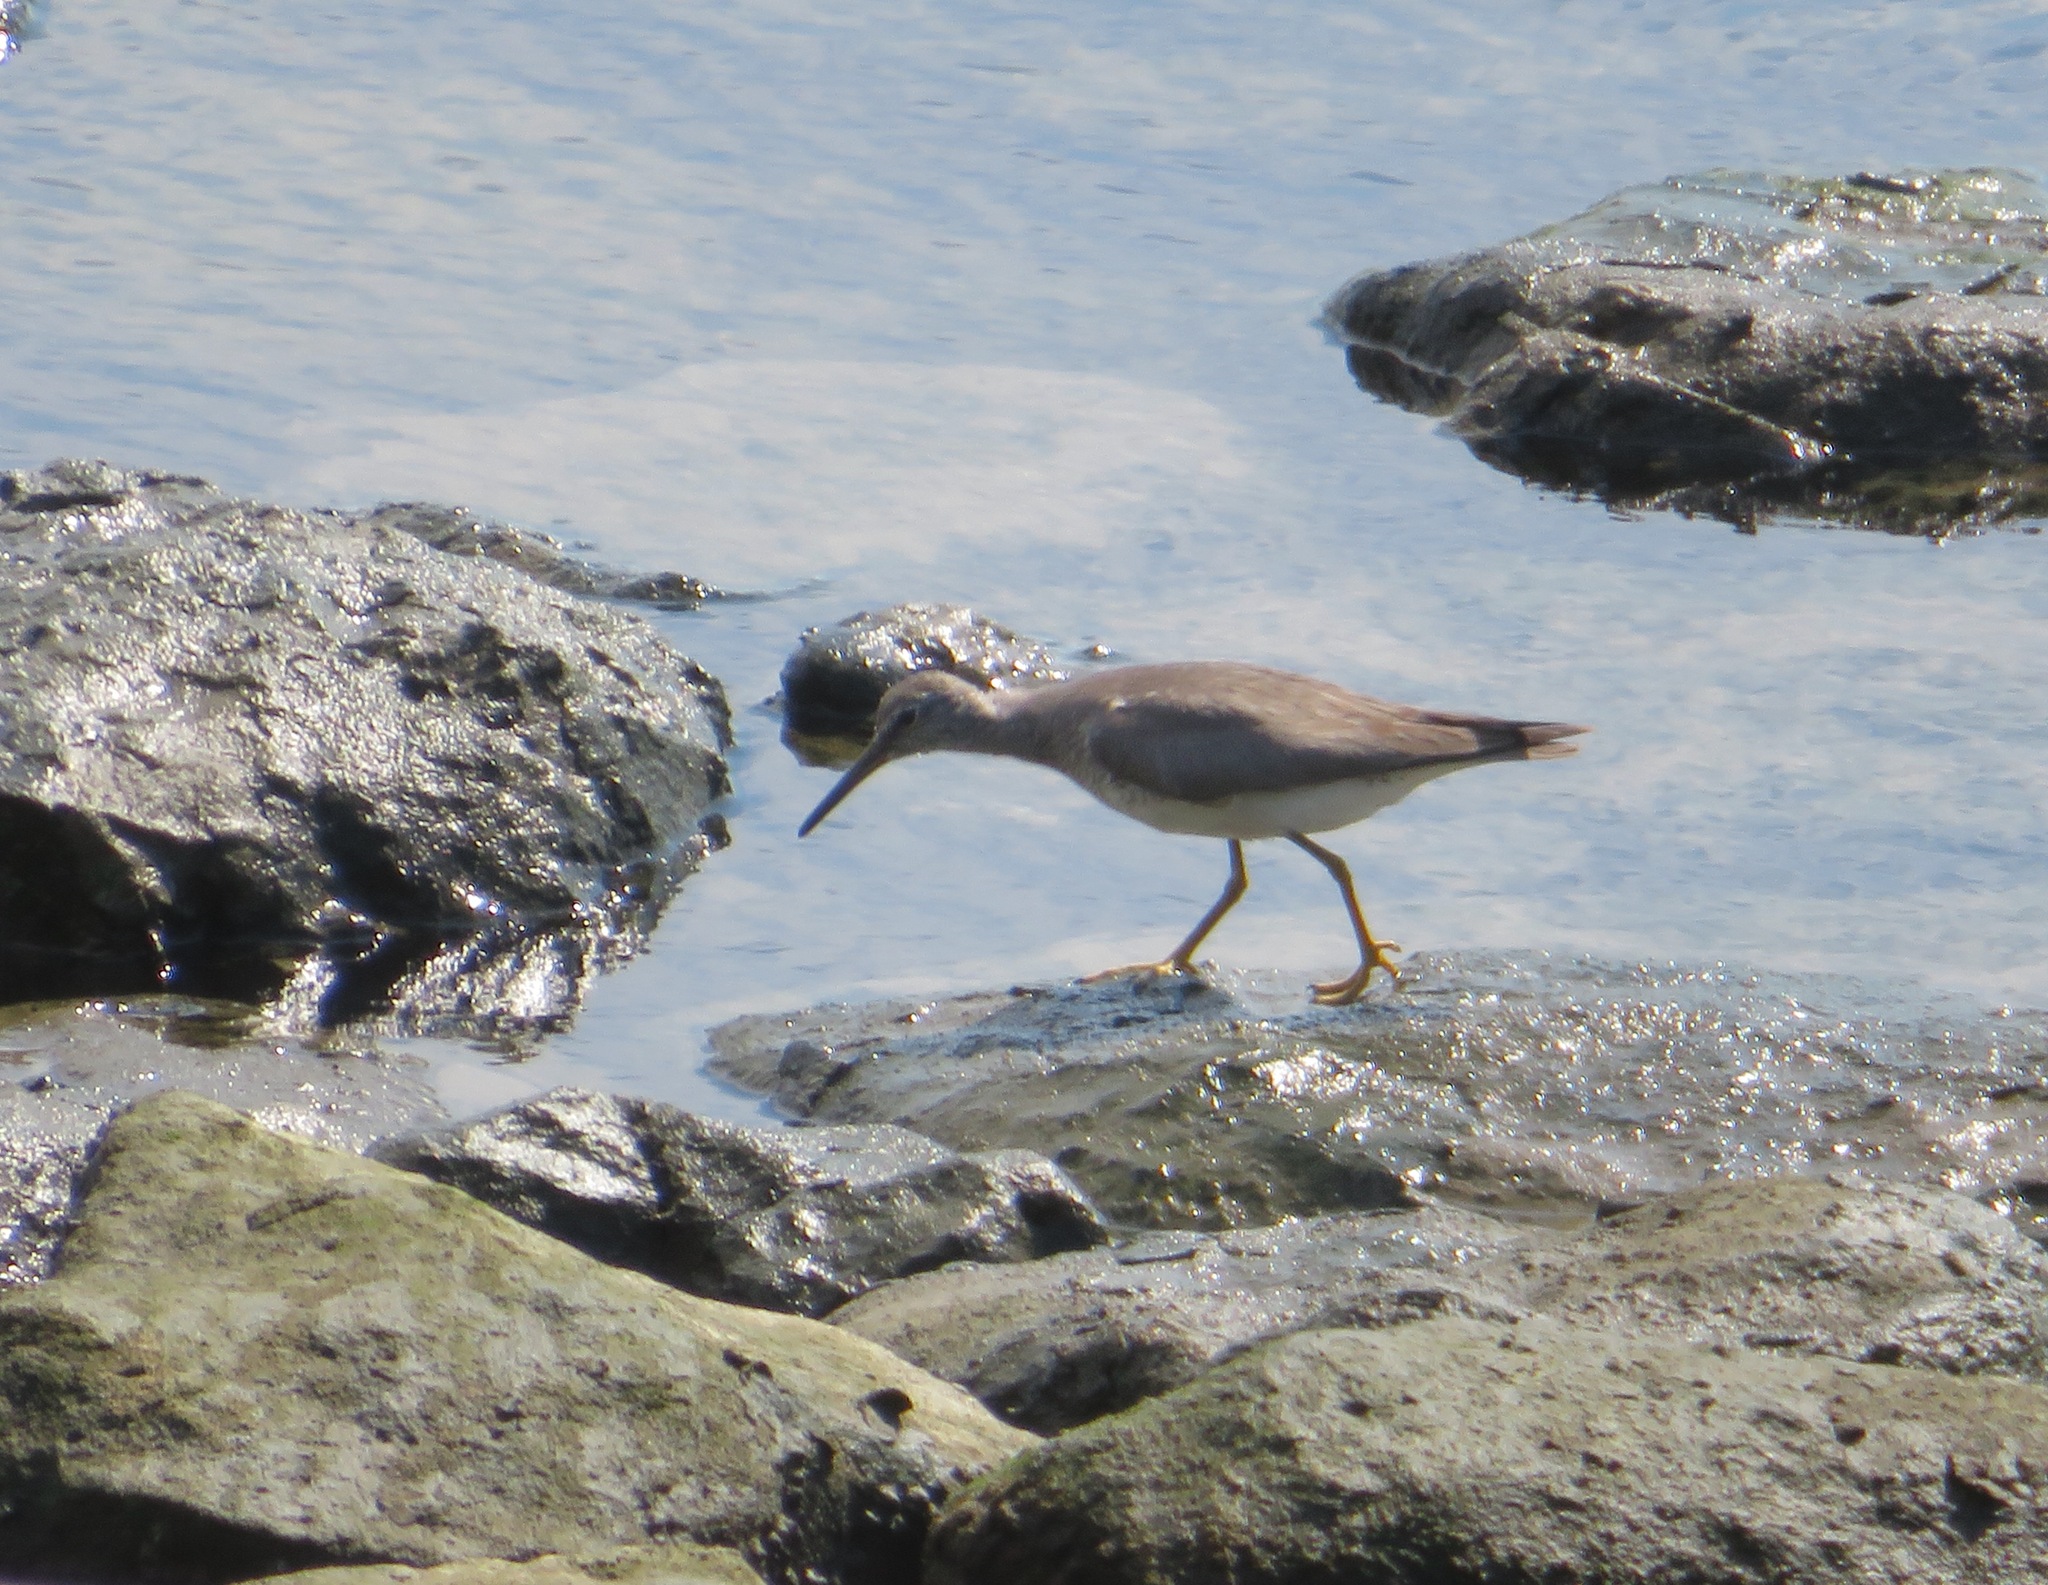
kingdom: Animalia
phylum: Chordata
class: Aves
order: Charadriiformes
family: Scolopacidae
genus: Tringa
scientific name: Tringa brevipes
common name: Grey-tailed tattler
